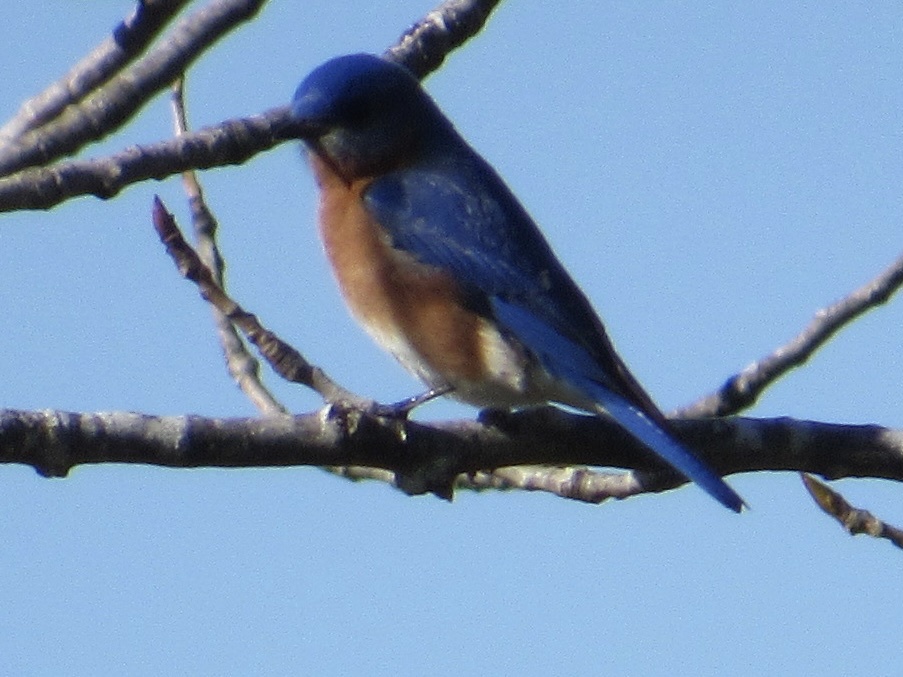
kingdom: Animalia
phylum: Chordata
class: Aves
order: Passeriformes
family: Turdidae
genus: Sialia
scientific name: Sialia sialis
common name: Eastern bluebird
